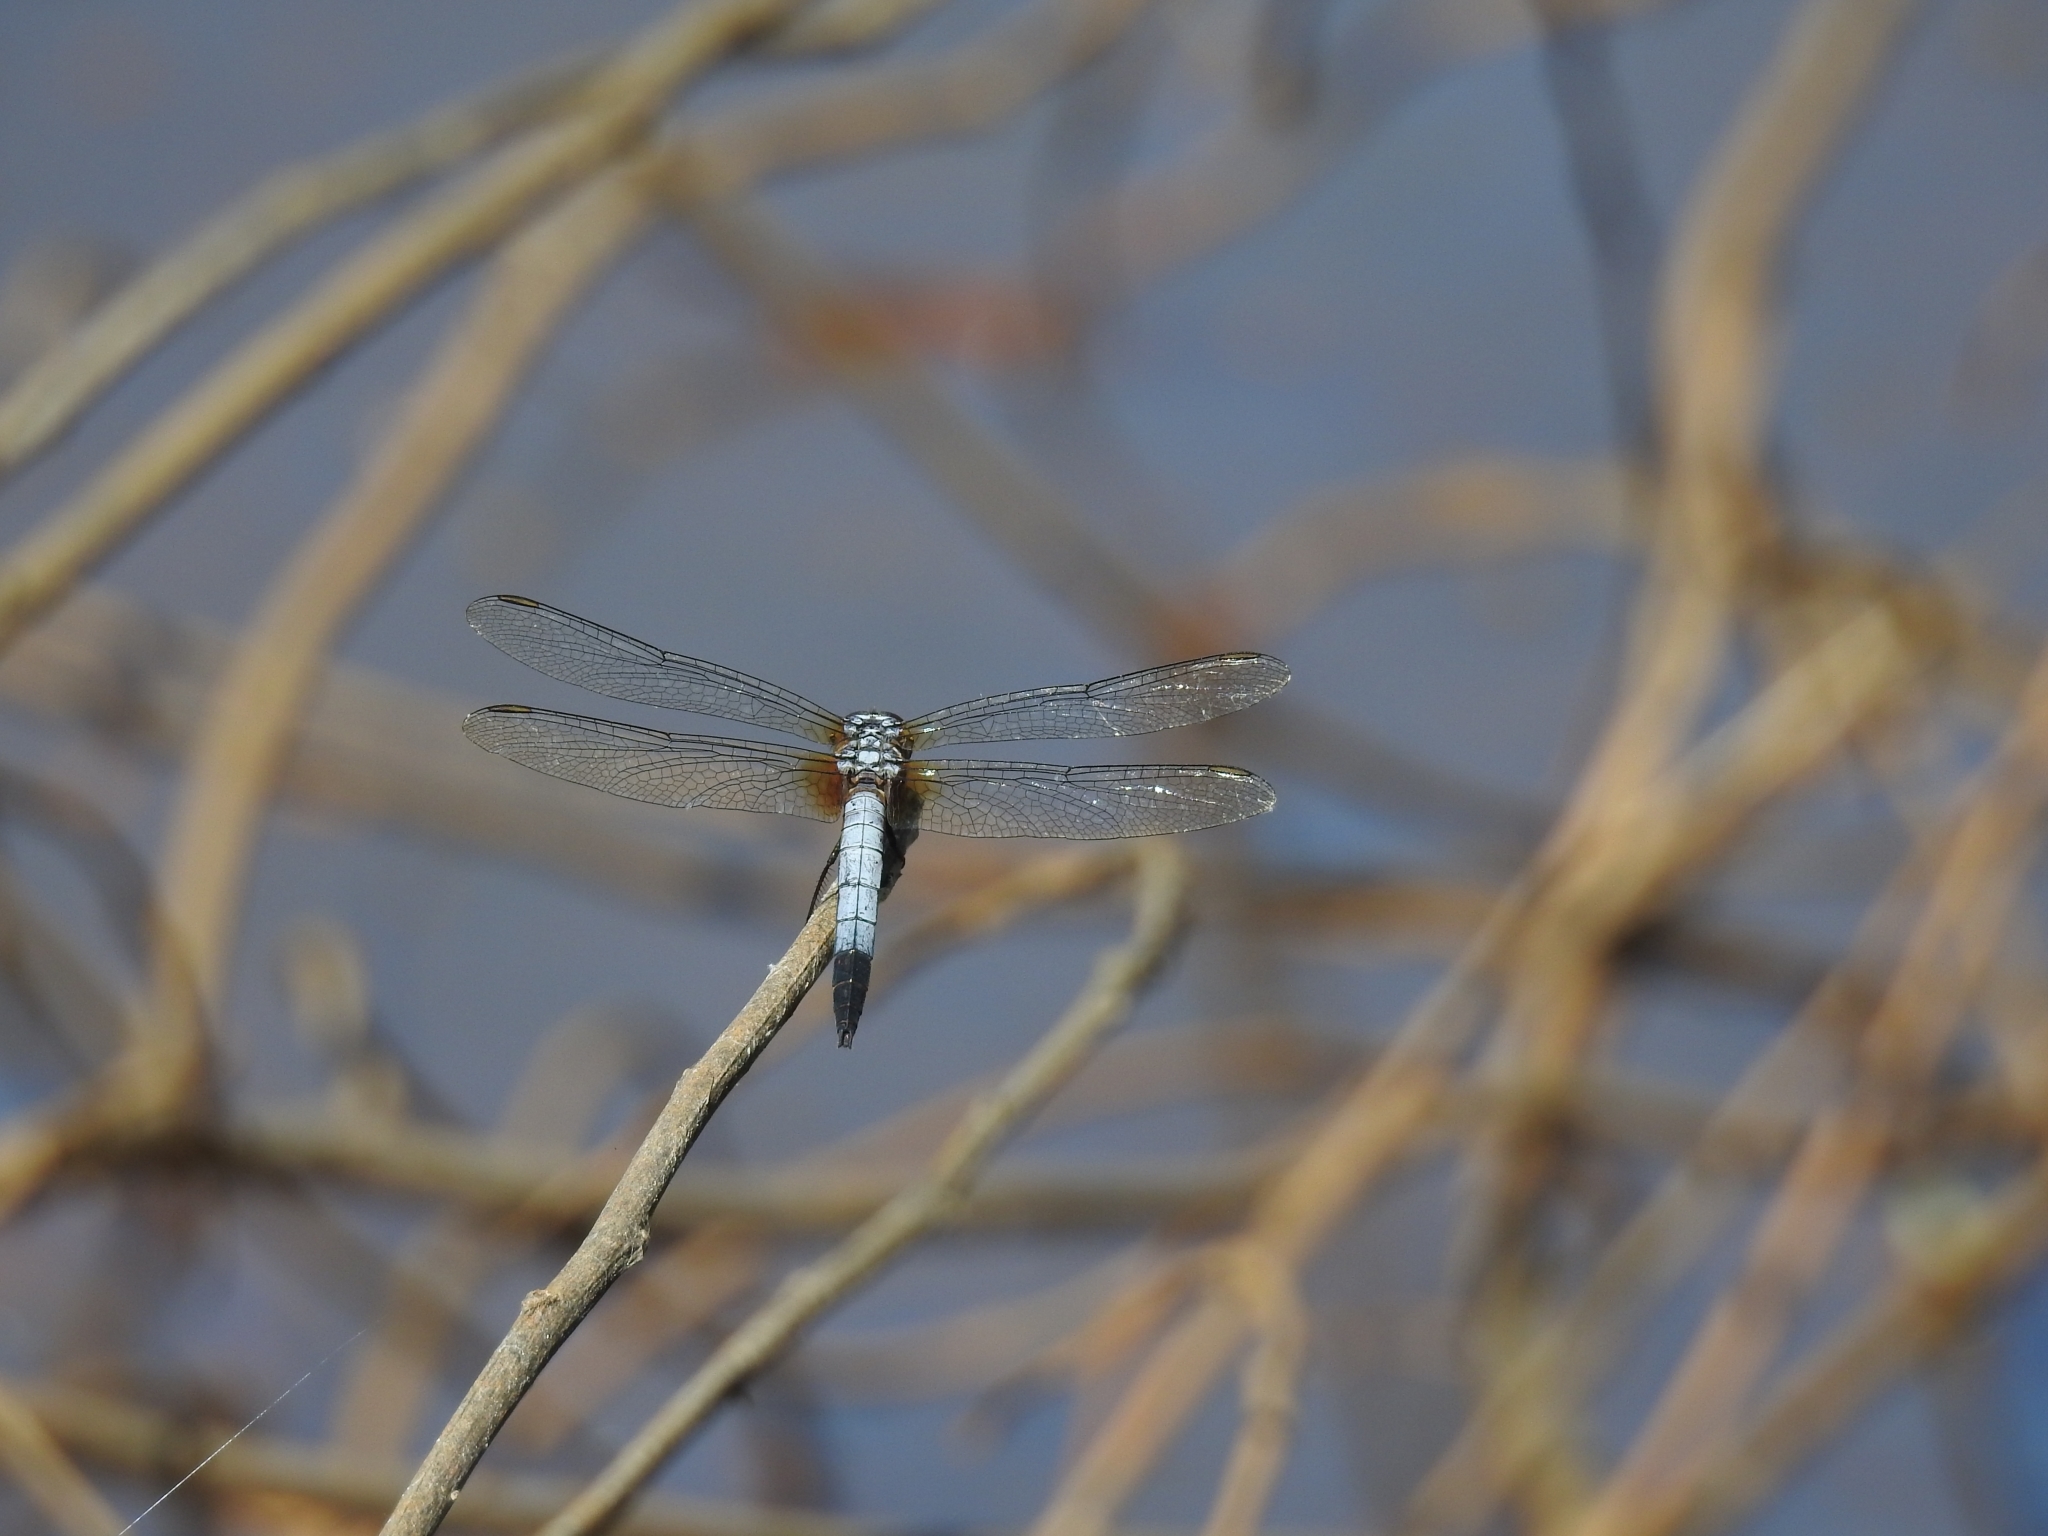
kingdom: Animalia
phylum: Arthropoda
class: Insecta
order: Odonata
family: Libellulidae
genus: Brachydiplax
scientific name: Brachydiplax chalybea
